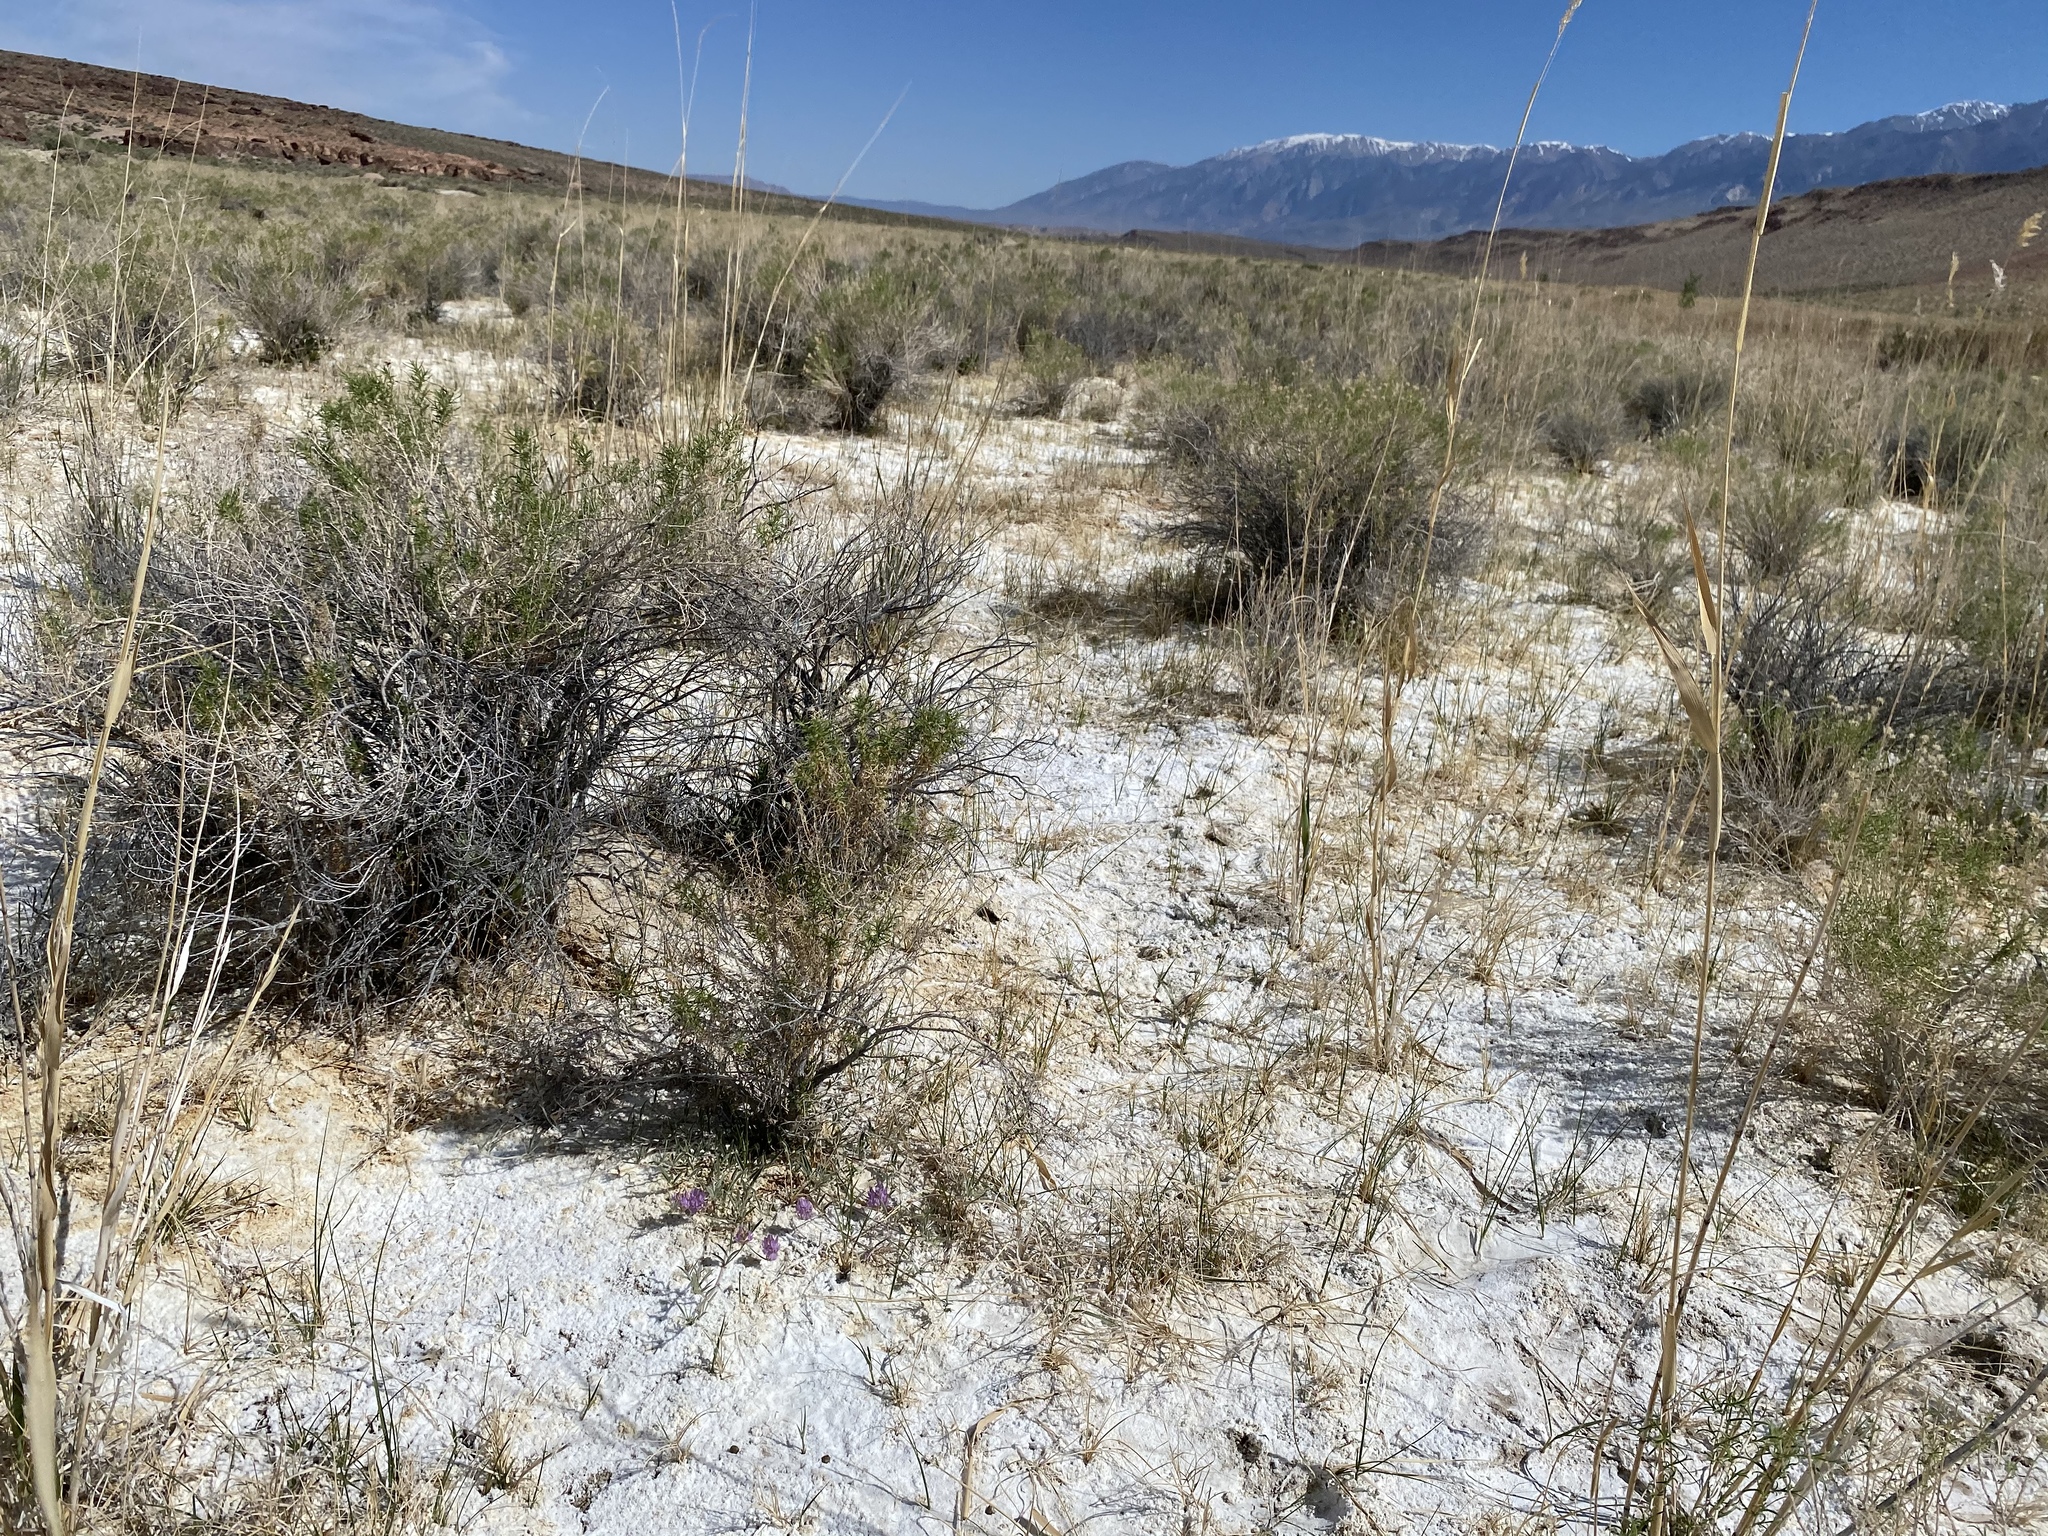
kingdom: Plantae
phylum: Tracheophyta
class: Magnoliopsida
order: Fabales
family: Fabaceae
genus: Astragalus
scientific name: Astragalus lentiginosus
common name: Freckled milkvetch
